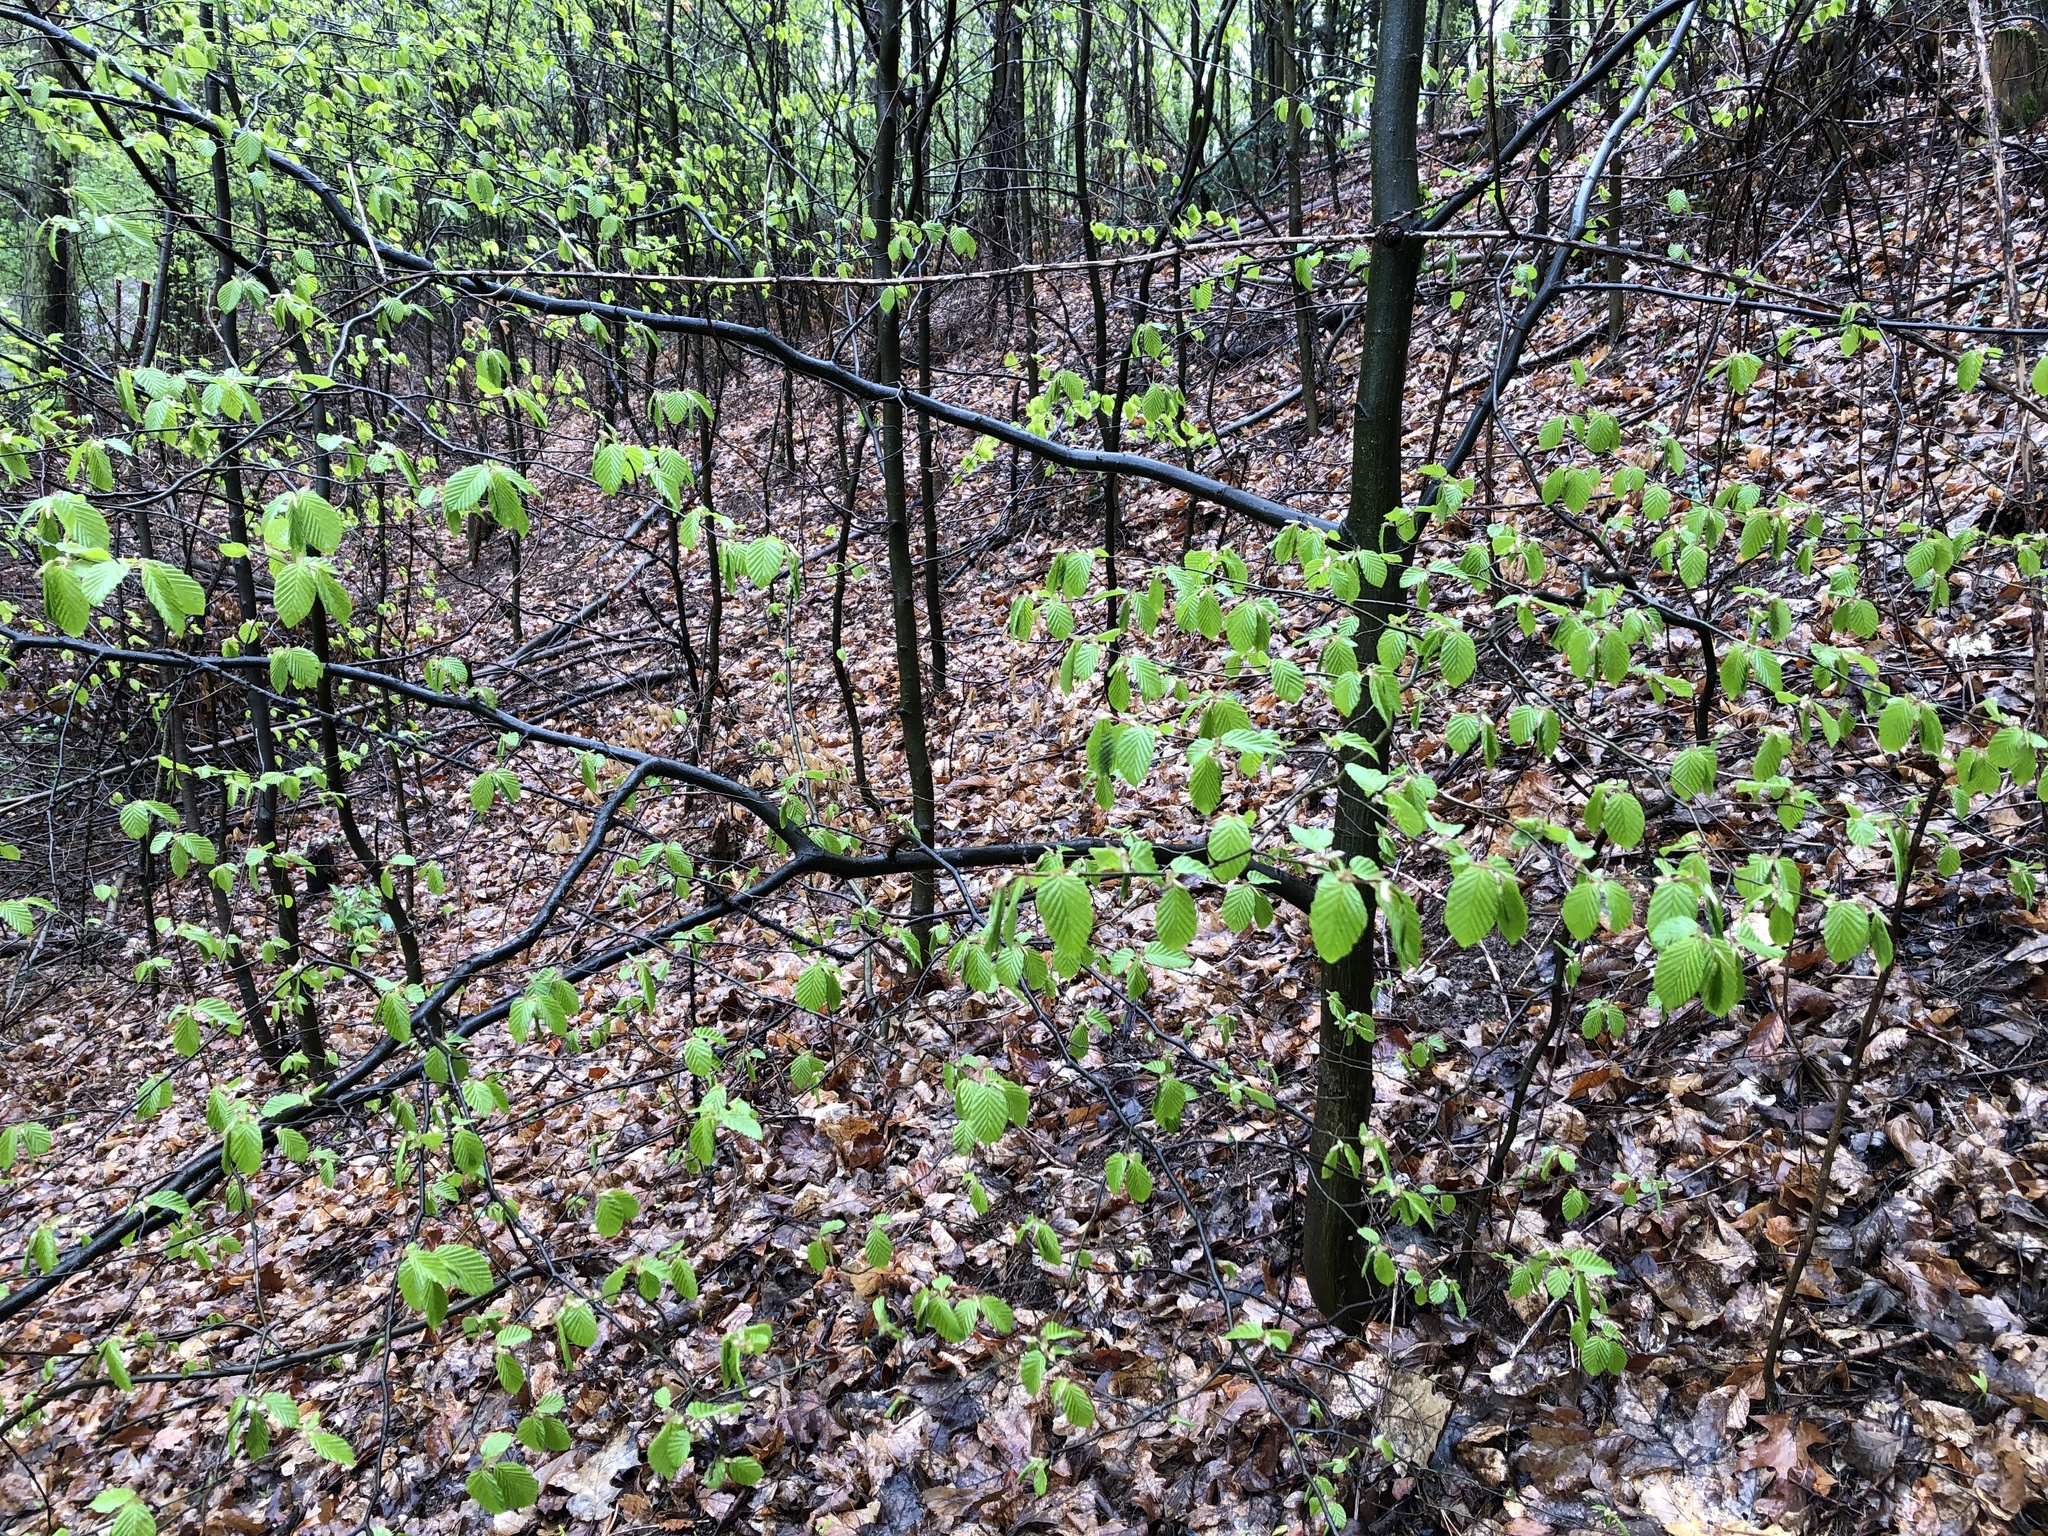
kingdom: Plantae
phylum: Tracheophyta
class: Magnoliopsida
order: Fagales
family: Betulaceae
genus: Carpinus
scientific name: Carpinus betulus
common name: Hornbeam
